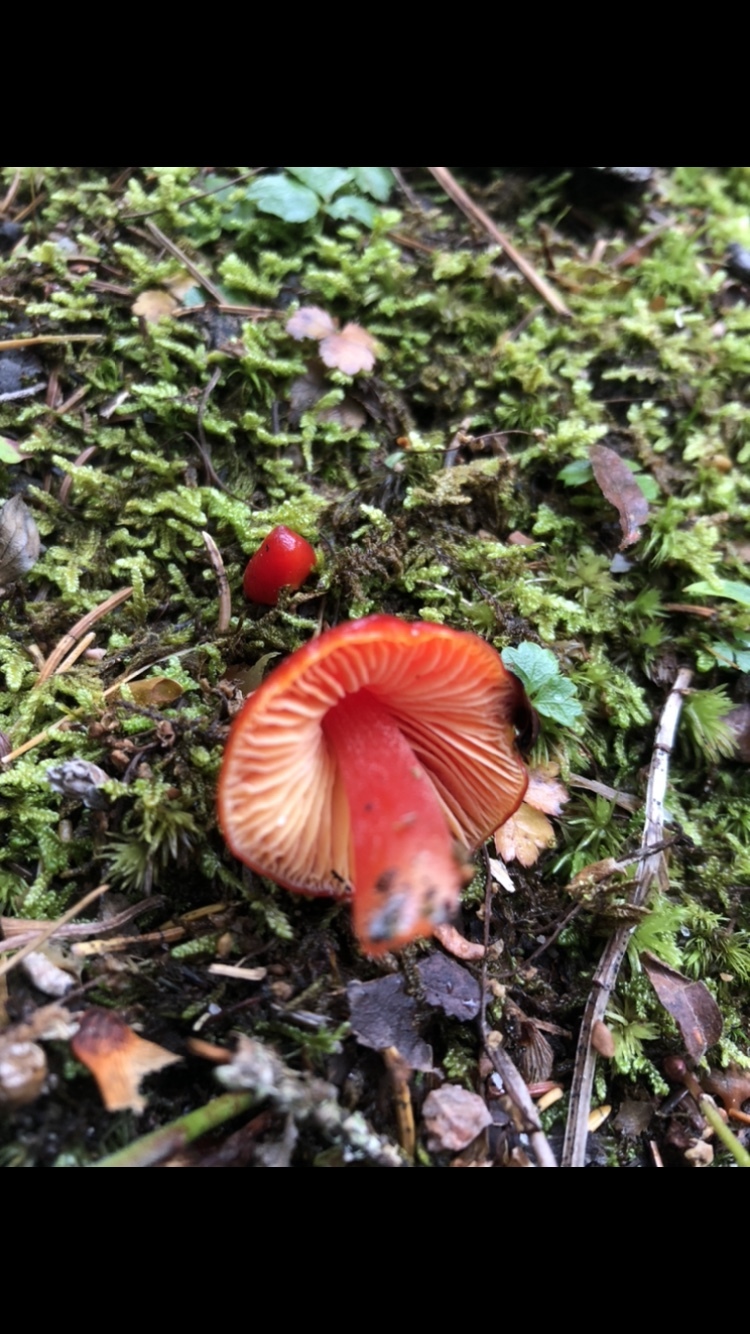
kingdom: Fungi
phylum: Basidiomycota
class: Agaricomycetes
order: Agaricales
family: Hygrophoraceae
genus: Hygrocybe
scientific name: Hygrocybe coccinea
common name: Scarlet hood
